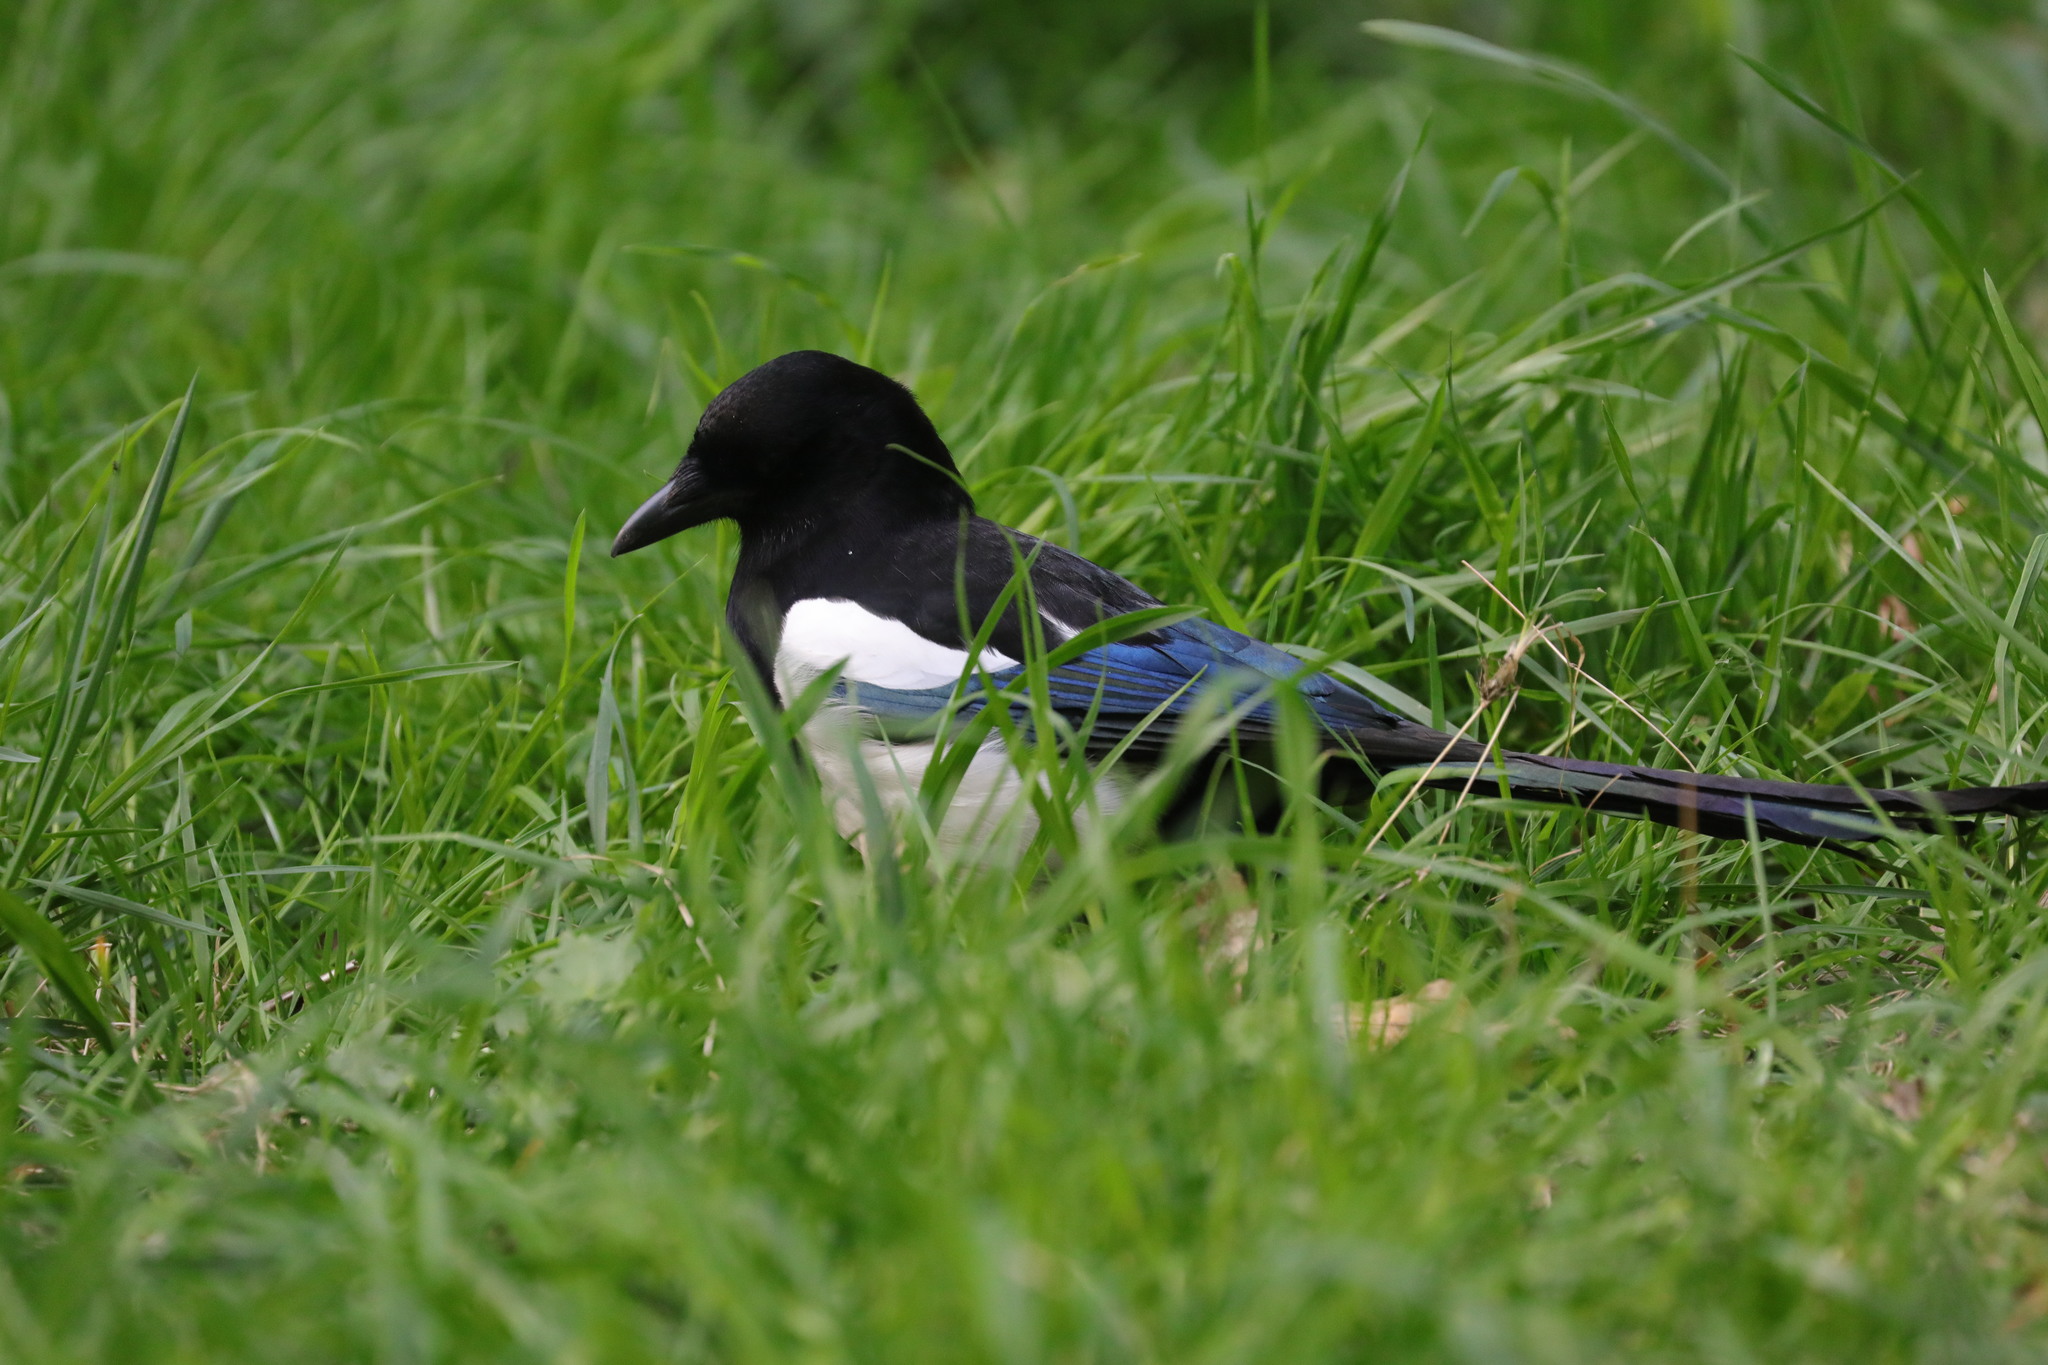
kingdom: Animalia
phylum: Chordata
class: Aves
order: Passeriformes
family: Corvidae
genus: Pica
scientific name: Pica pica
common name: Eurasian magpie
